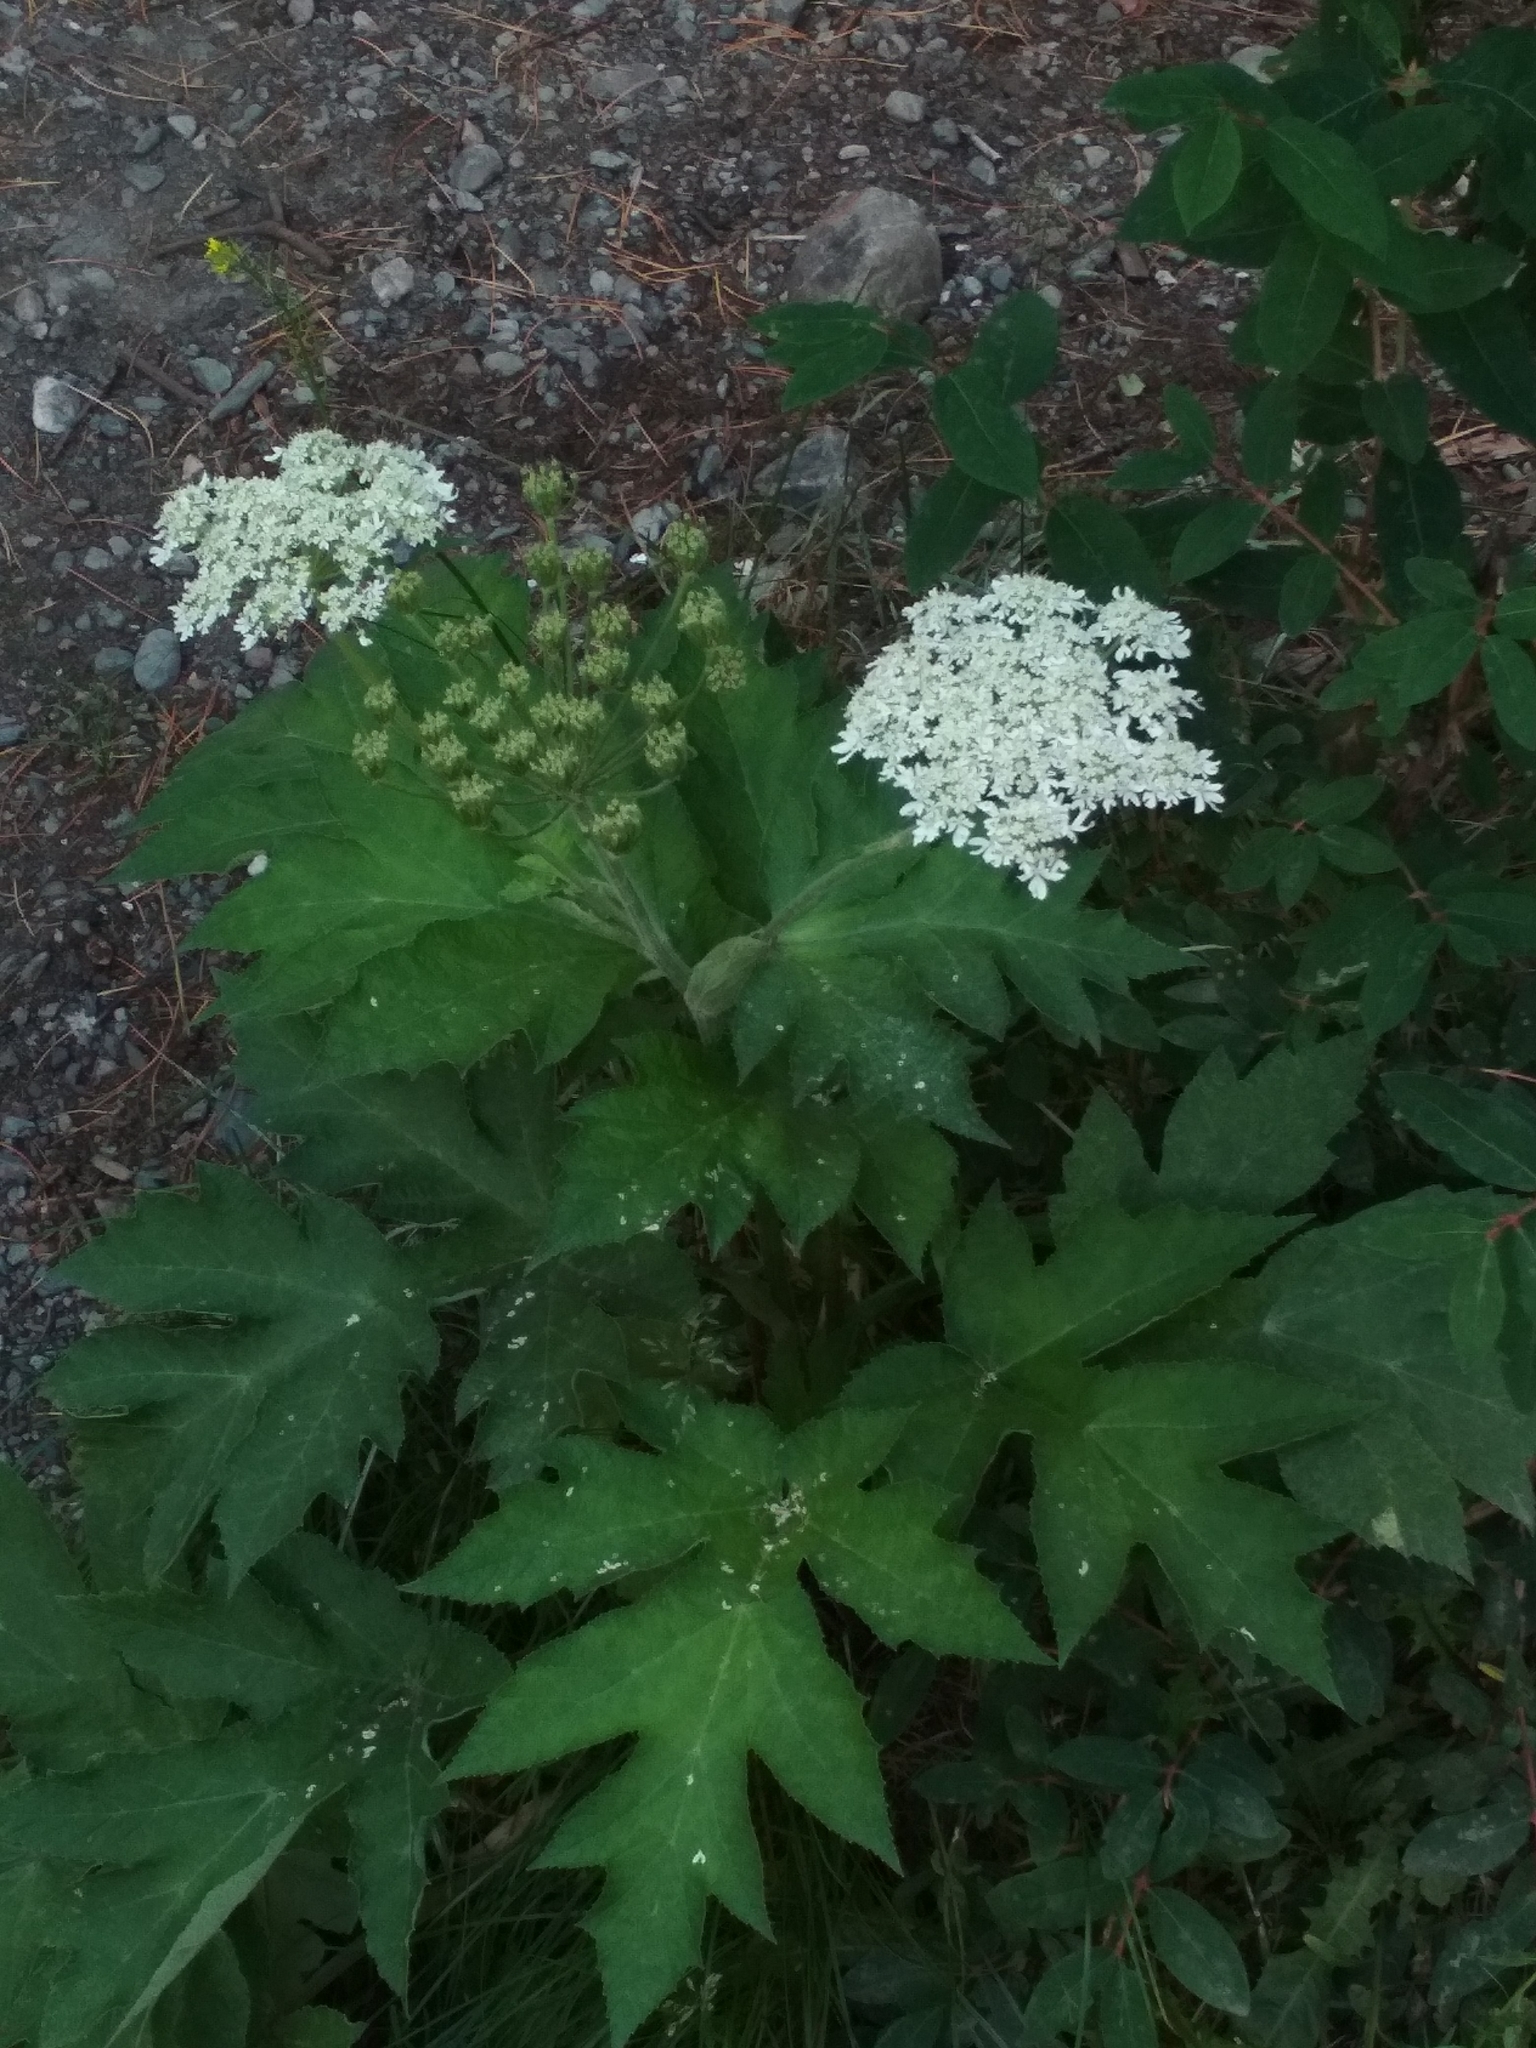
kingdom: Plantae
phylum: Tracheophyta
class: Magnoliopsida
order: Apiales
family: Apiaceae
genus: Heracleum
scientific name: Heracleum dissectum
